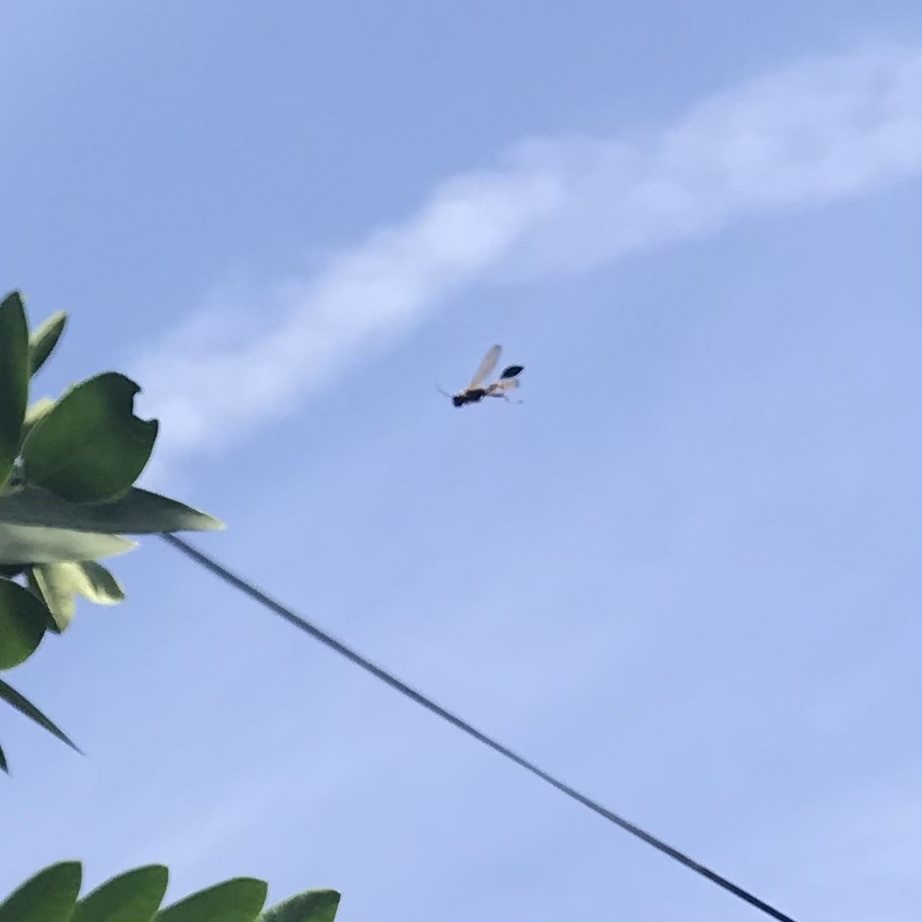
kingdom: Animalia
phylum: Arthropoda
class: Insecta
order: Hymenoptera
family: Sphecidae
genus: Sceliphron
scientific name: Sceliphron caementarium
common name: Mud dauber
